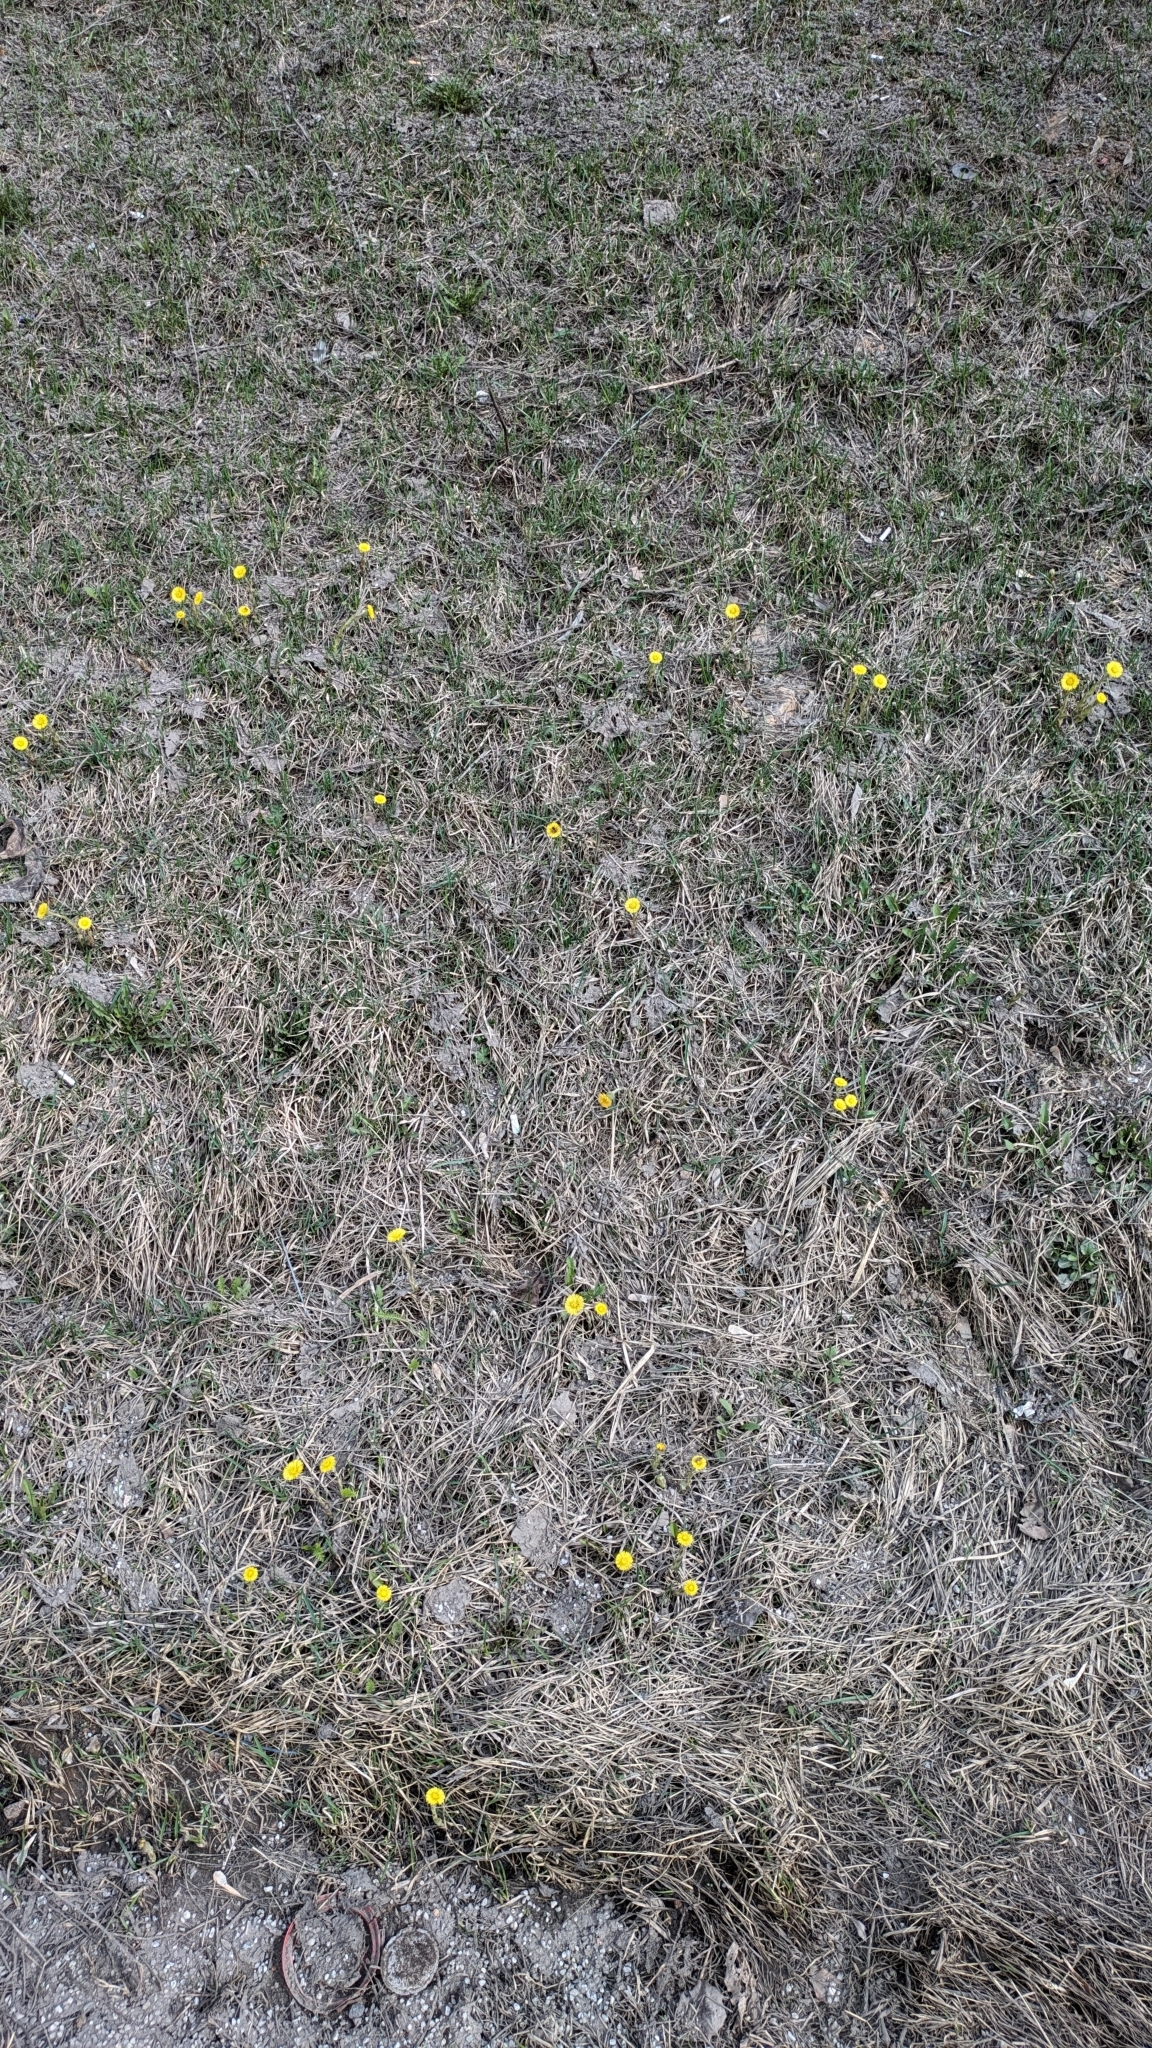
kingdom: Plantae
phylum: Tracheophyta
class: Magnoliopsida
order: Asterales
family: Asteraceae
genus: Tussilago
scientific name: Tussilago farfara
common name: Coltsfoot
